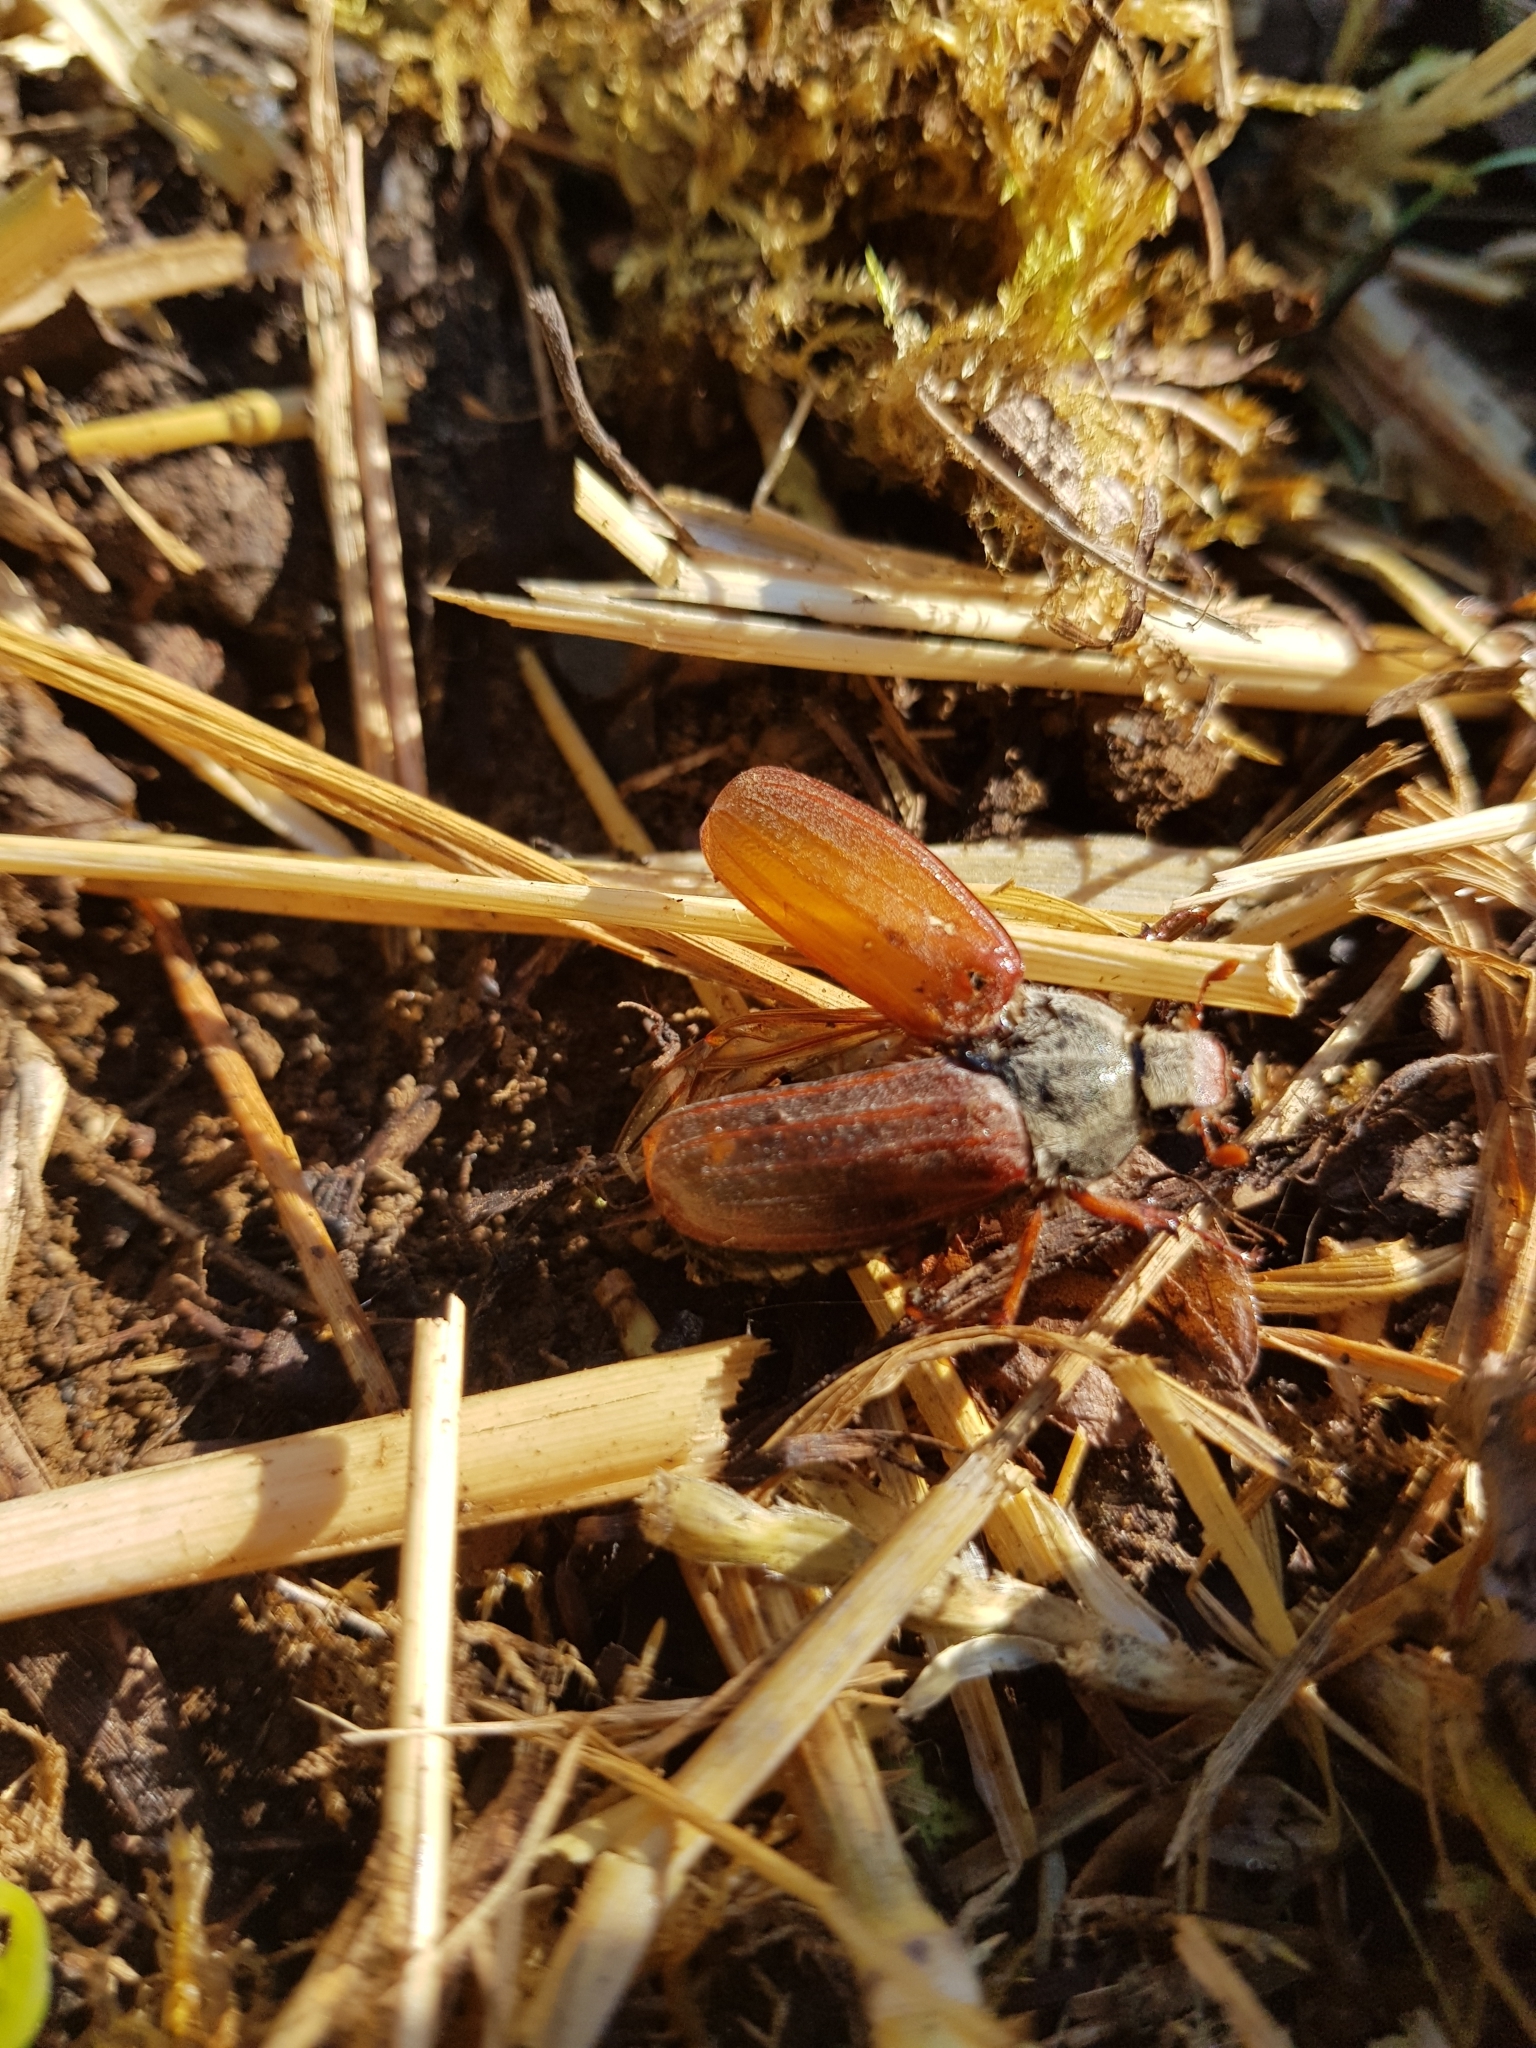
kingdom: Animalia
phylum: Arthropoda
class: Insecta
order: Coleoptera
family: Scarabaeidae
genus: Melolontha
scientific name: Melolontha melolontha
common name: Cockchafer maybeetle
